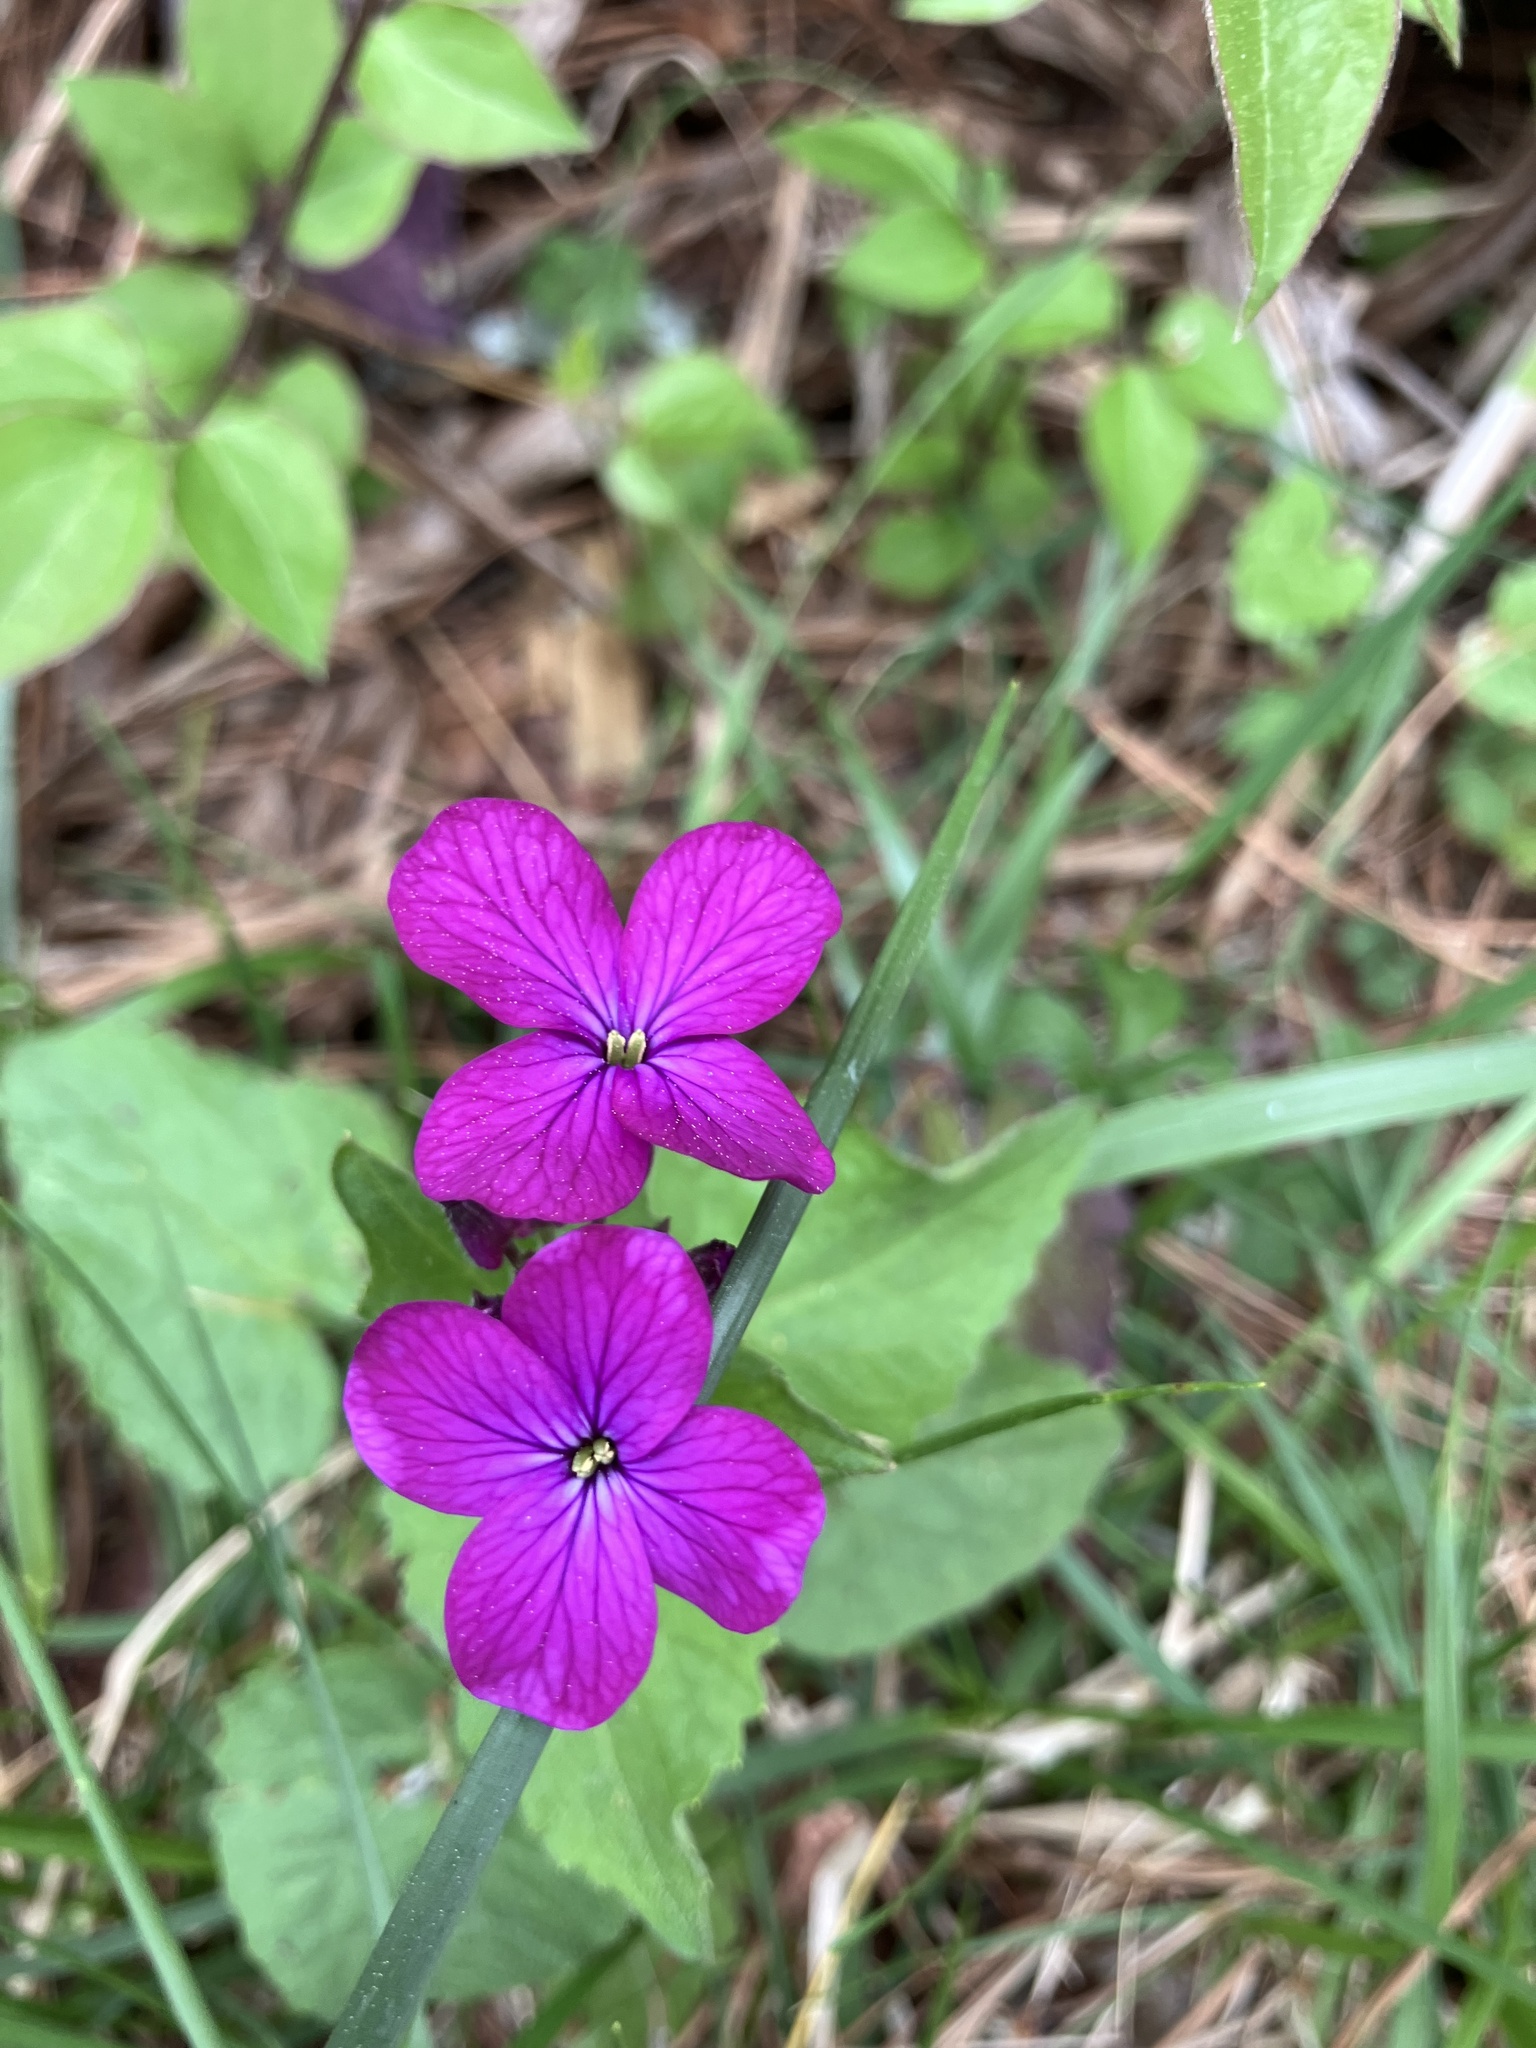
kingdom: Plantae
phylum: Tracheophyta
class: Magnoliopsida
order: Brassicales
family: Brassicaceae
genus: Lunaria
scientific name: Lunaria annua
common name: Honesty
